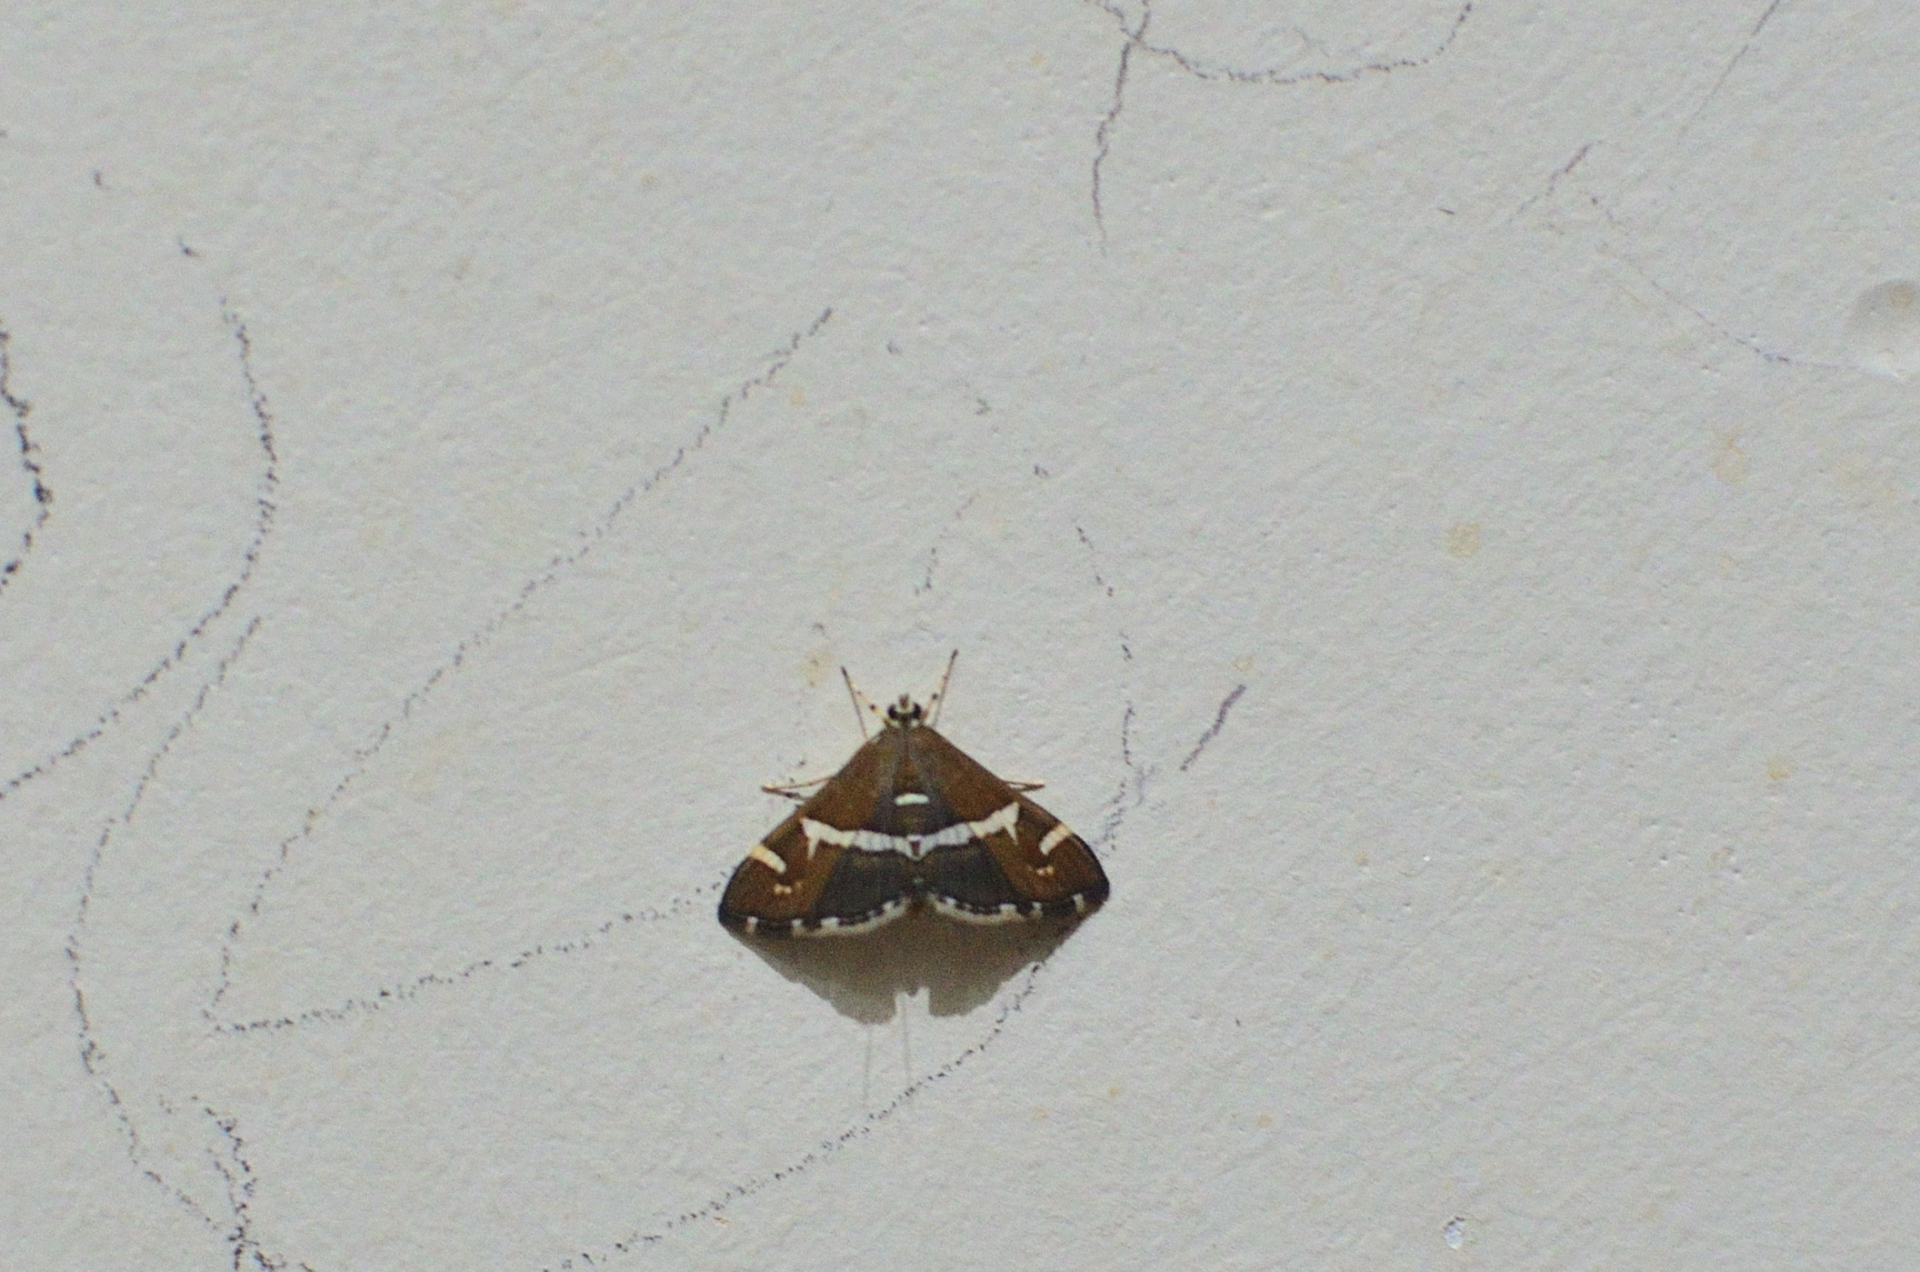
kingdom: Animalia
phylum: Arthropoda
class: Insecta
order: Lepidoptera
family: Crambidae
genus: Spoladea
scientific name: Spoladea recurvalis
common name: Beet webworm moth
